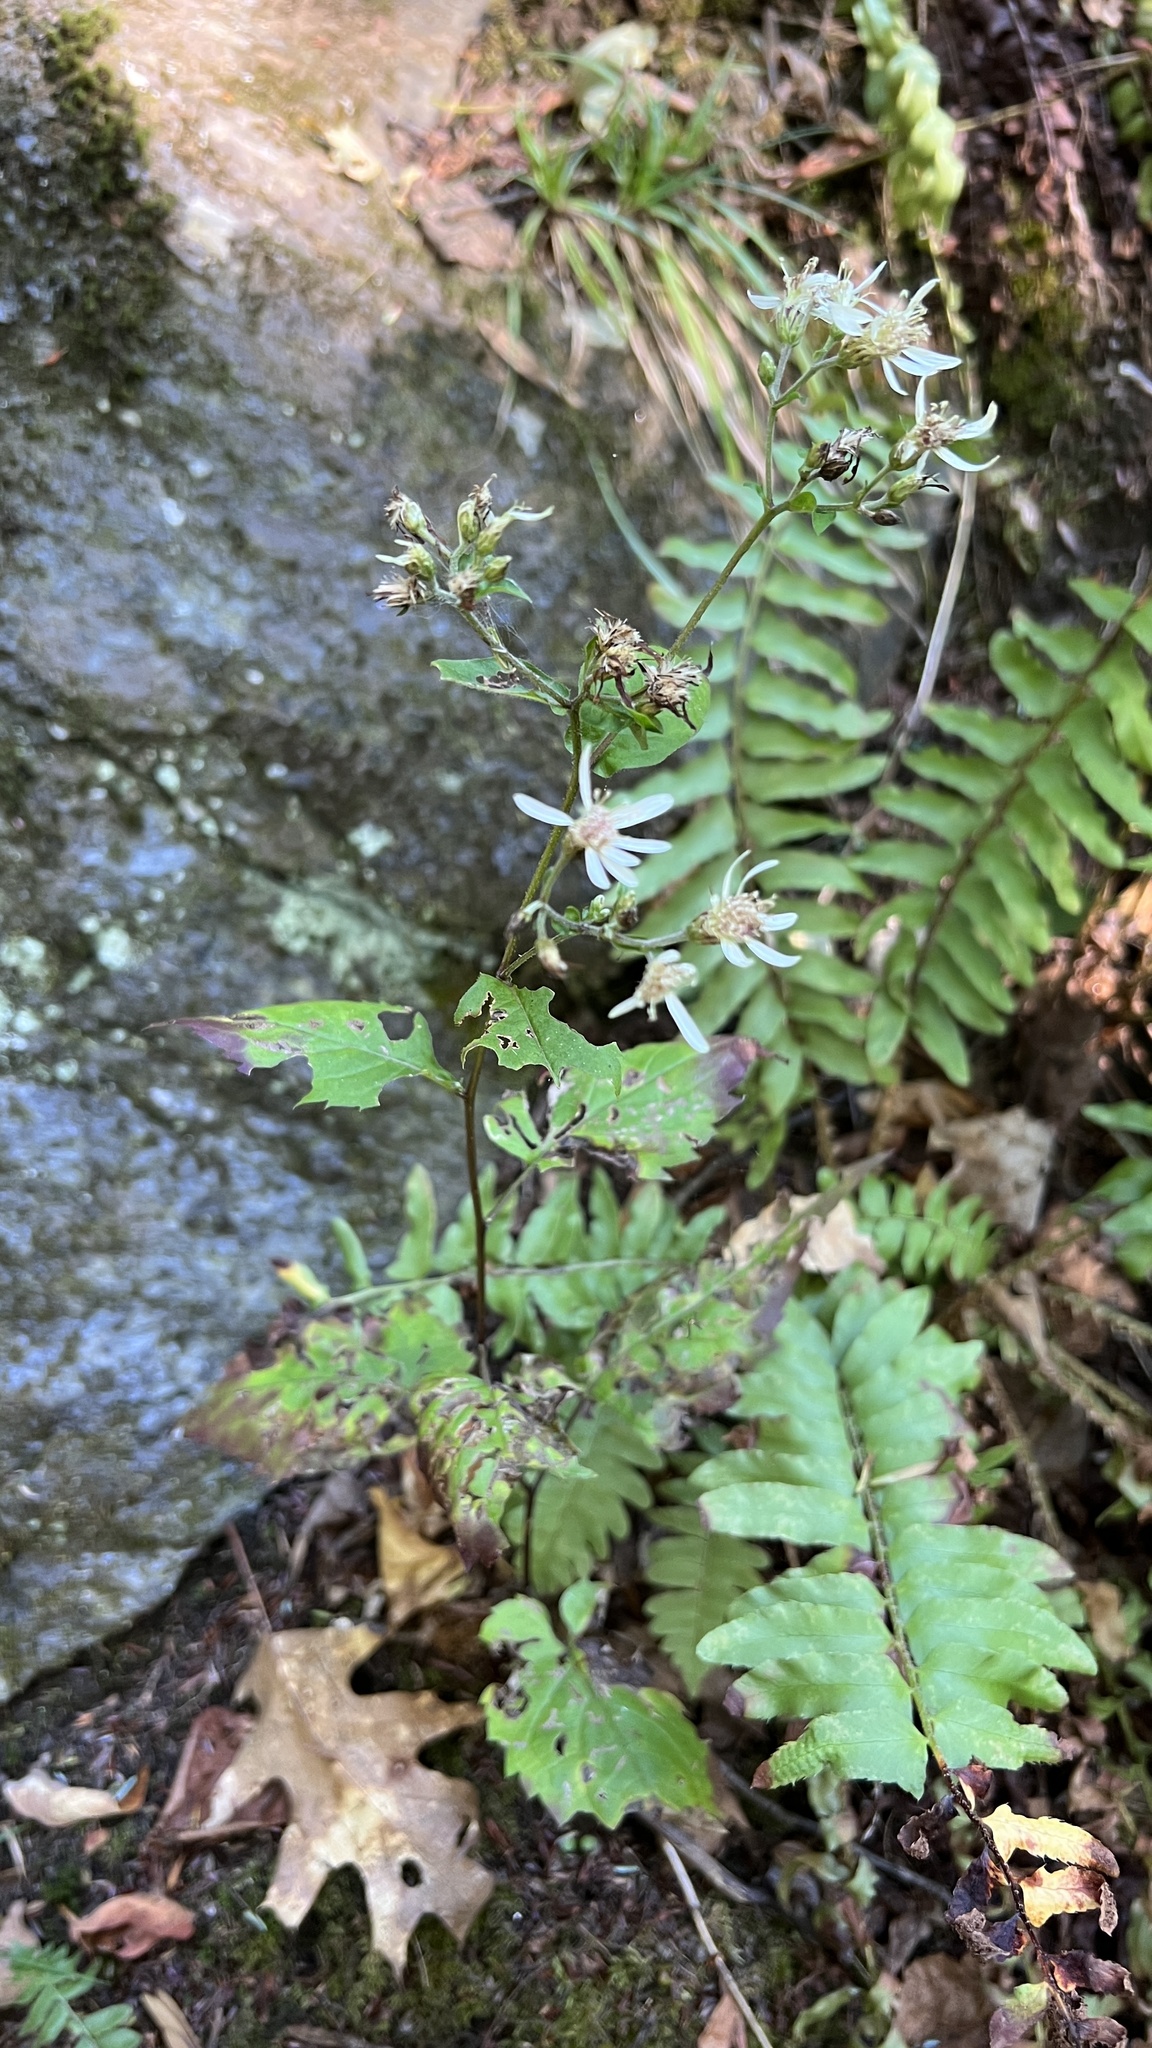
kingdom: Plantae
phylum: Tracheophyta
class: Magnoliopsida
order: Asterales
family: Asteraceae
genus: Eurybia
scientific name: Eurybia divaricata
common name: White wood aster
